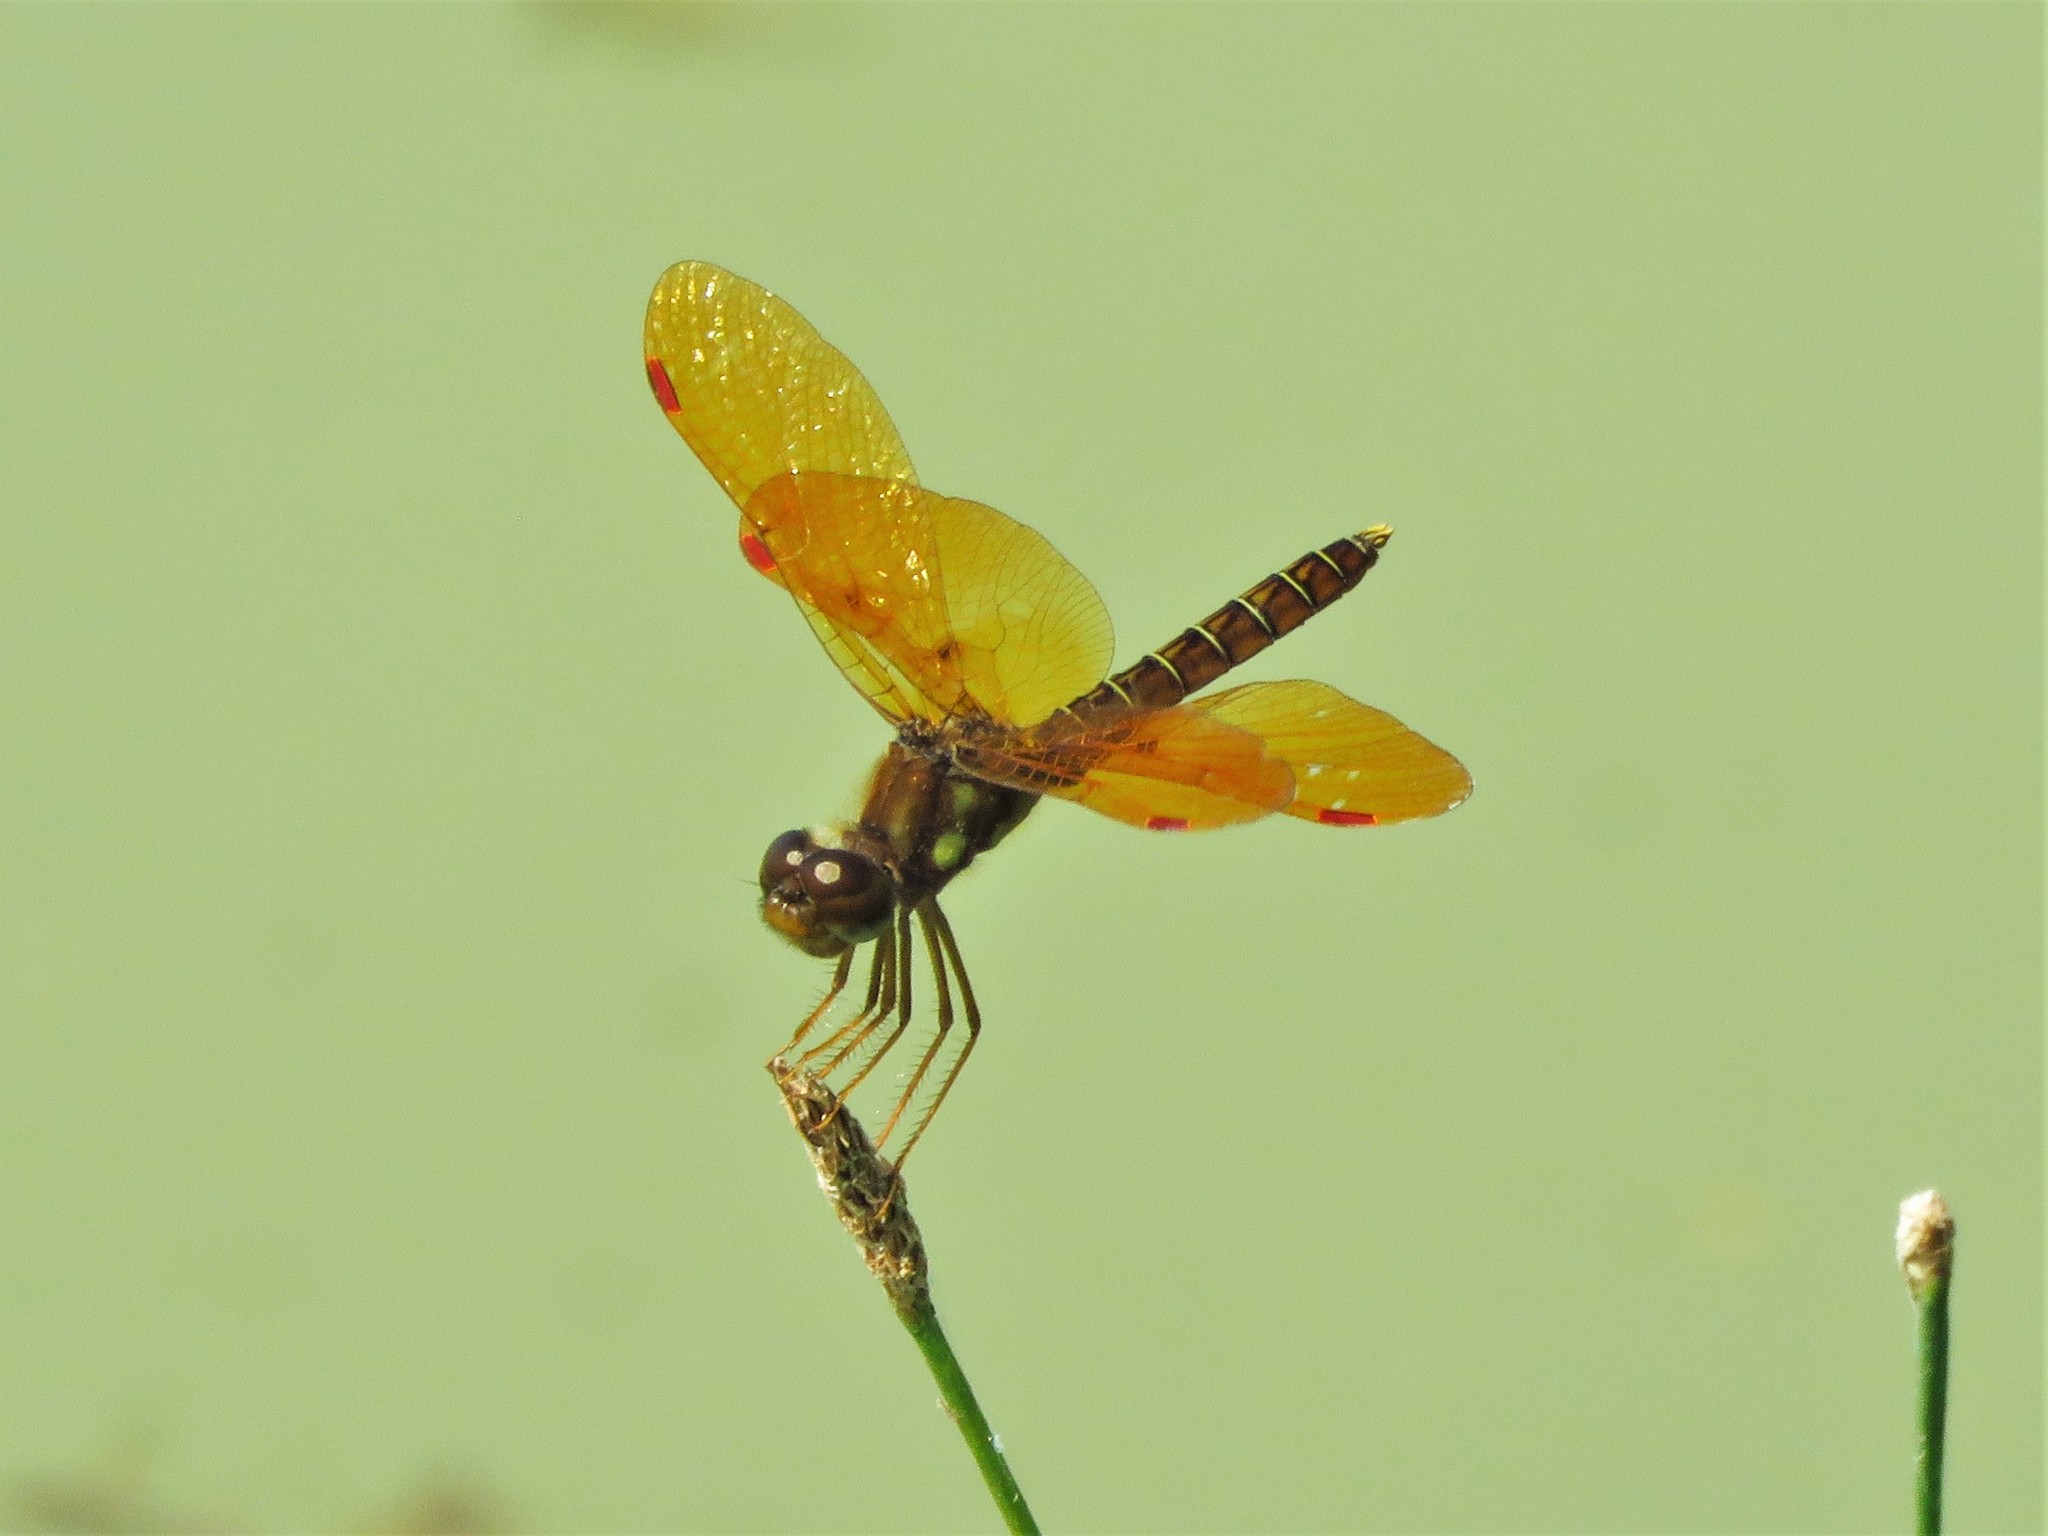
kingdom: Animalia
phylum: Arthropoda
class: Insecta
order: Odonata
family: Libellulidae
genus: Perithemis
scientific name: Perithemis tenera
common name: Eastern amberwing
